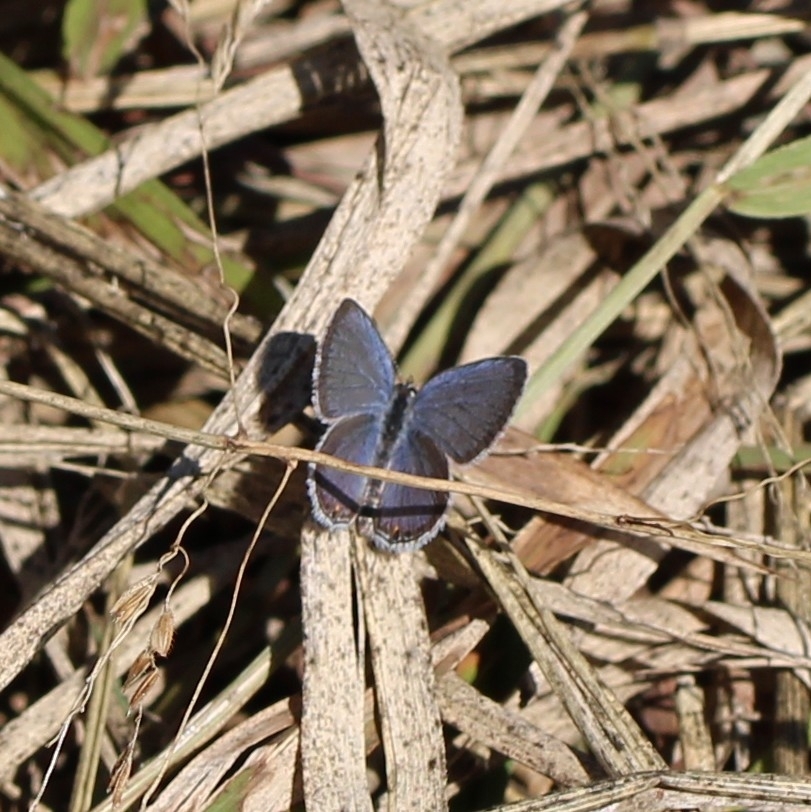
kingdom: Animalia
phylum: Arthropoda
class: Insecta
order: Lepidoptera
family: Lycaenidae
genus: Elkalyce
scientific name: Elkalyce comyntas
